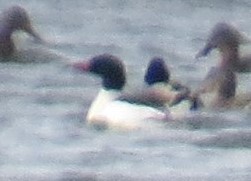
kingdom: Animalia
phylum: Chordata
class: Aves
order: Anseriformes
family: Anatidae
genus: Mergus
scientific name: Mergus merganser
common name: Common merganser
